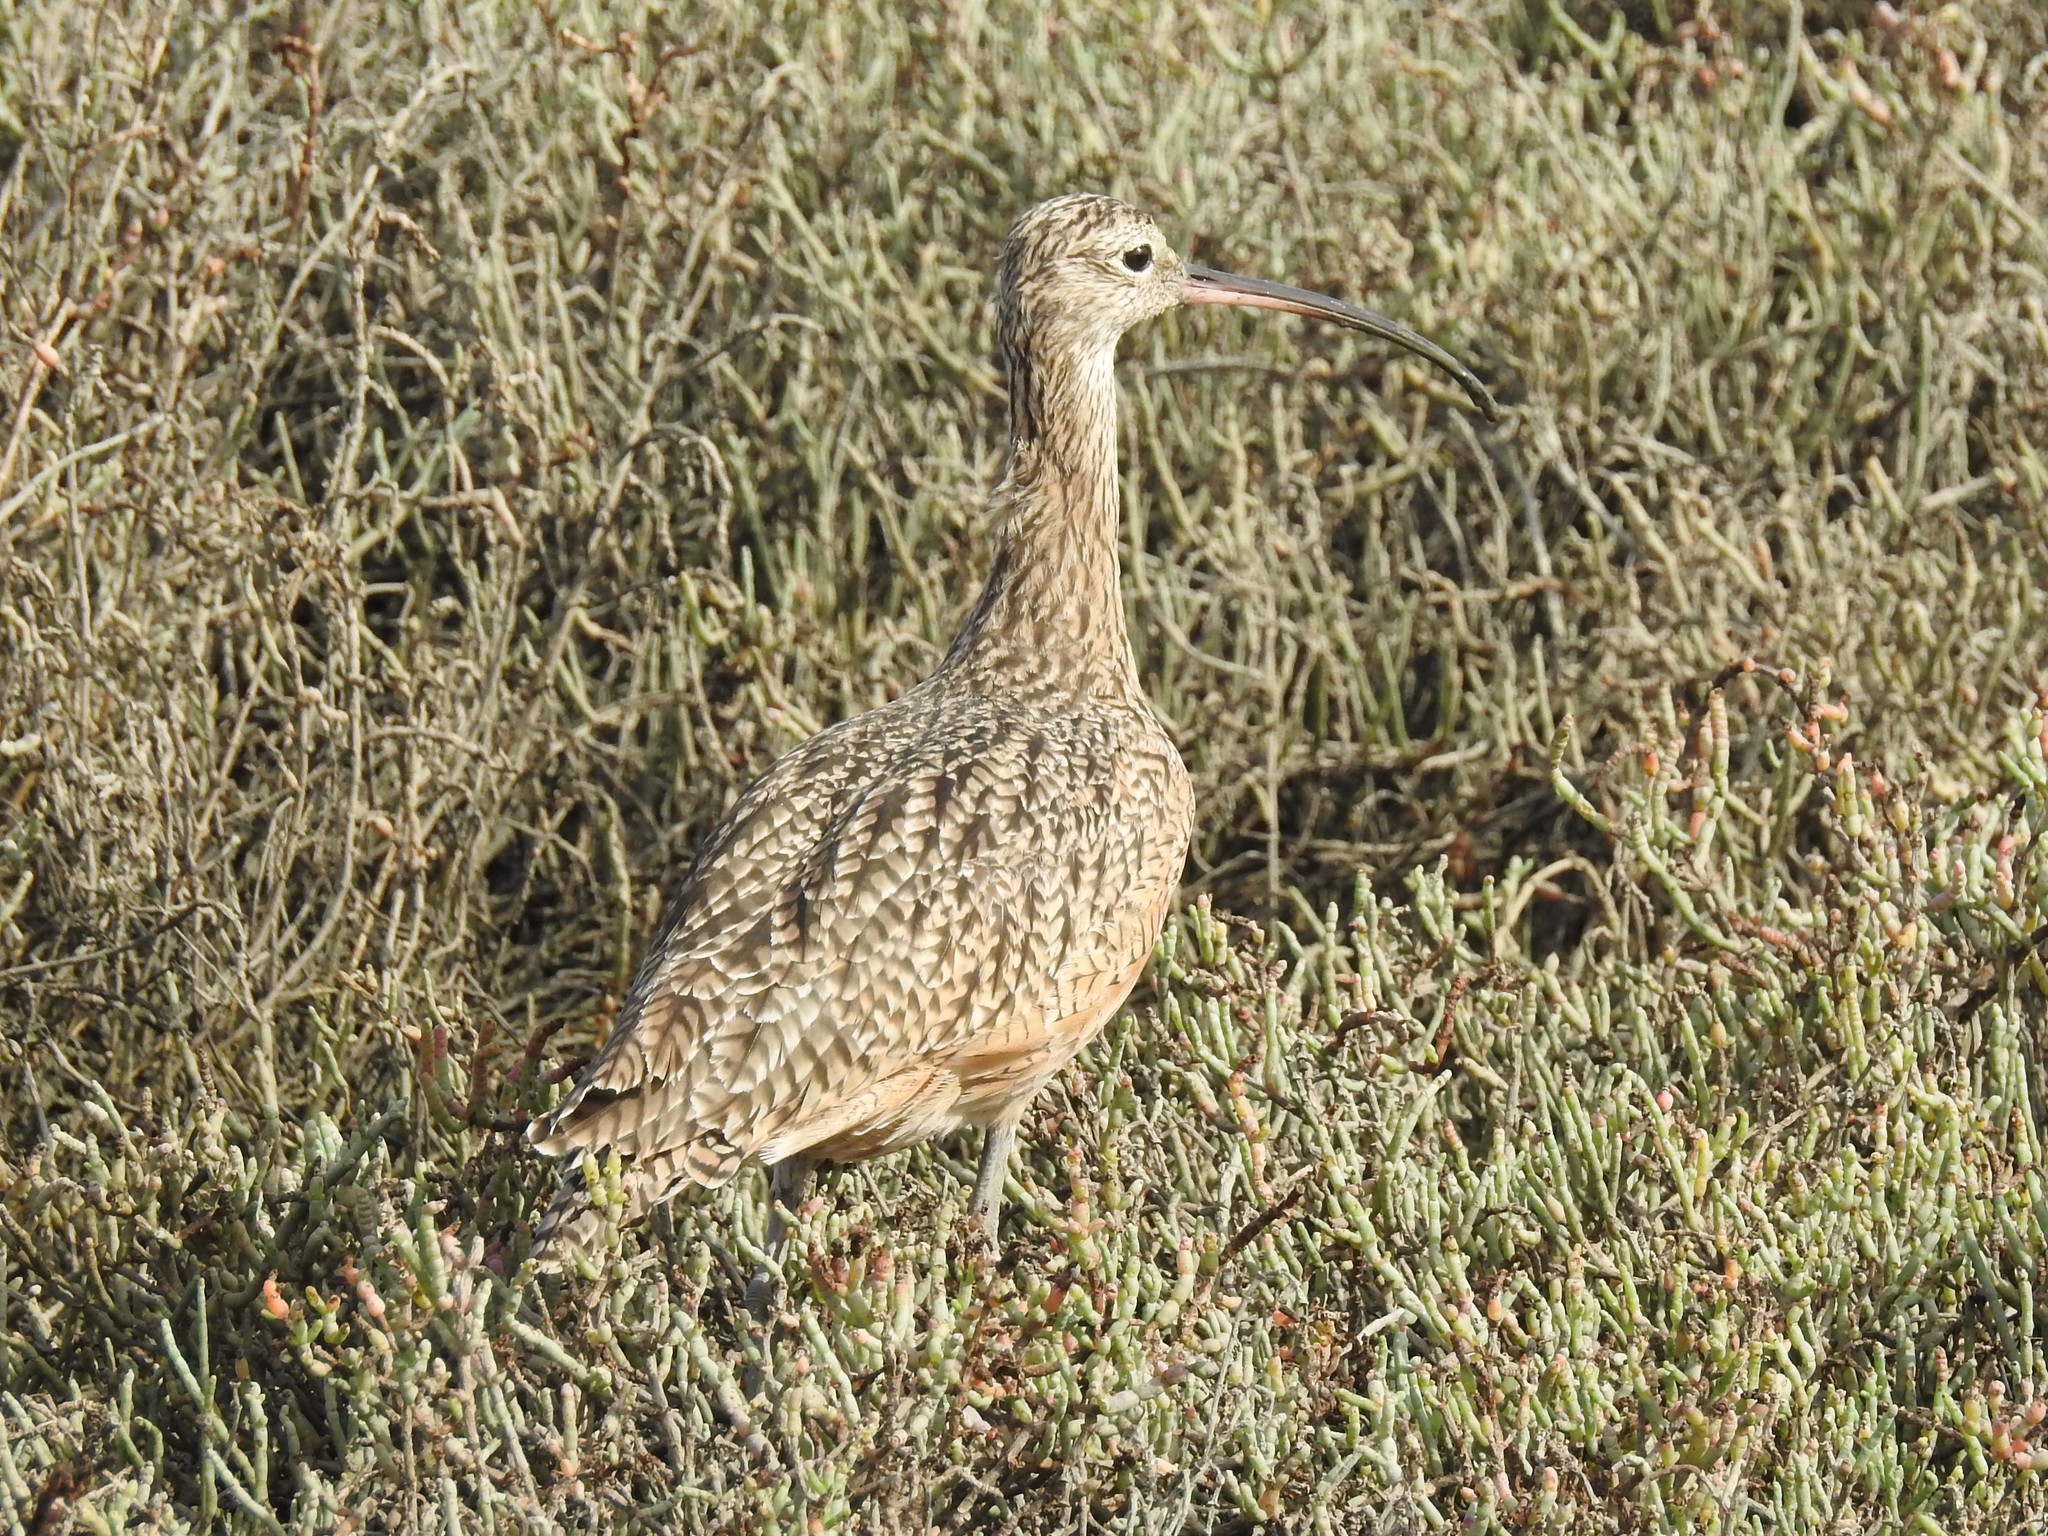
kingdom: Animalia
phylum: Chordata
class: Aves
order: Charadriiformes
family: Scolopacidae
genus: Numenius
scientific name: Numenius americanus
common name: Long-billed curlew
